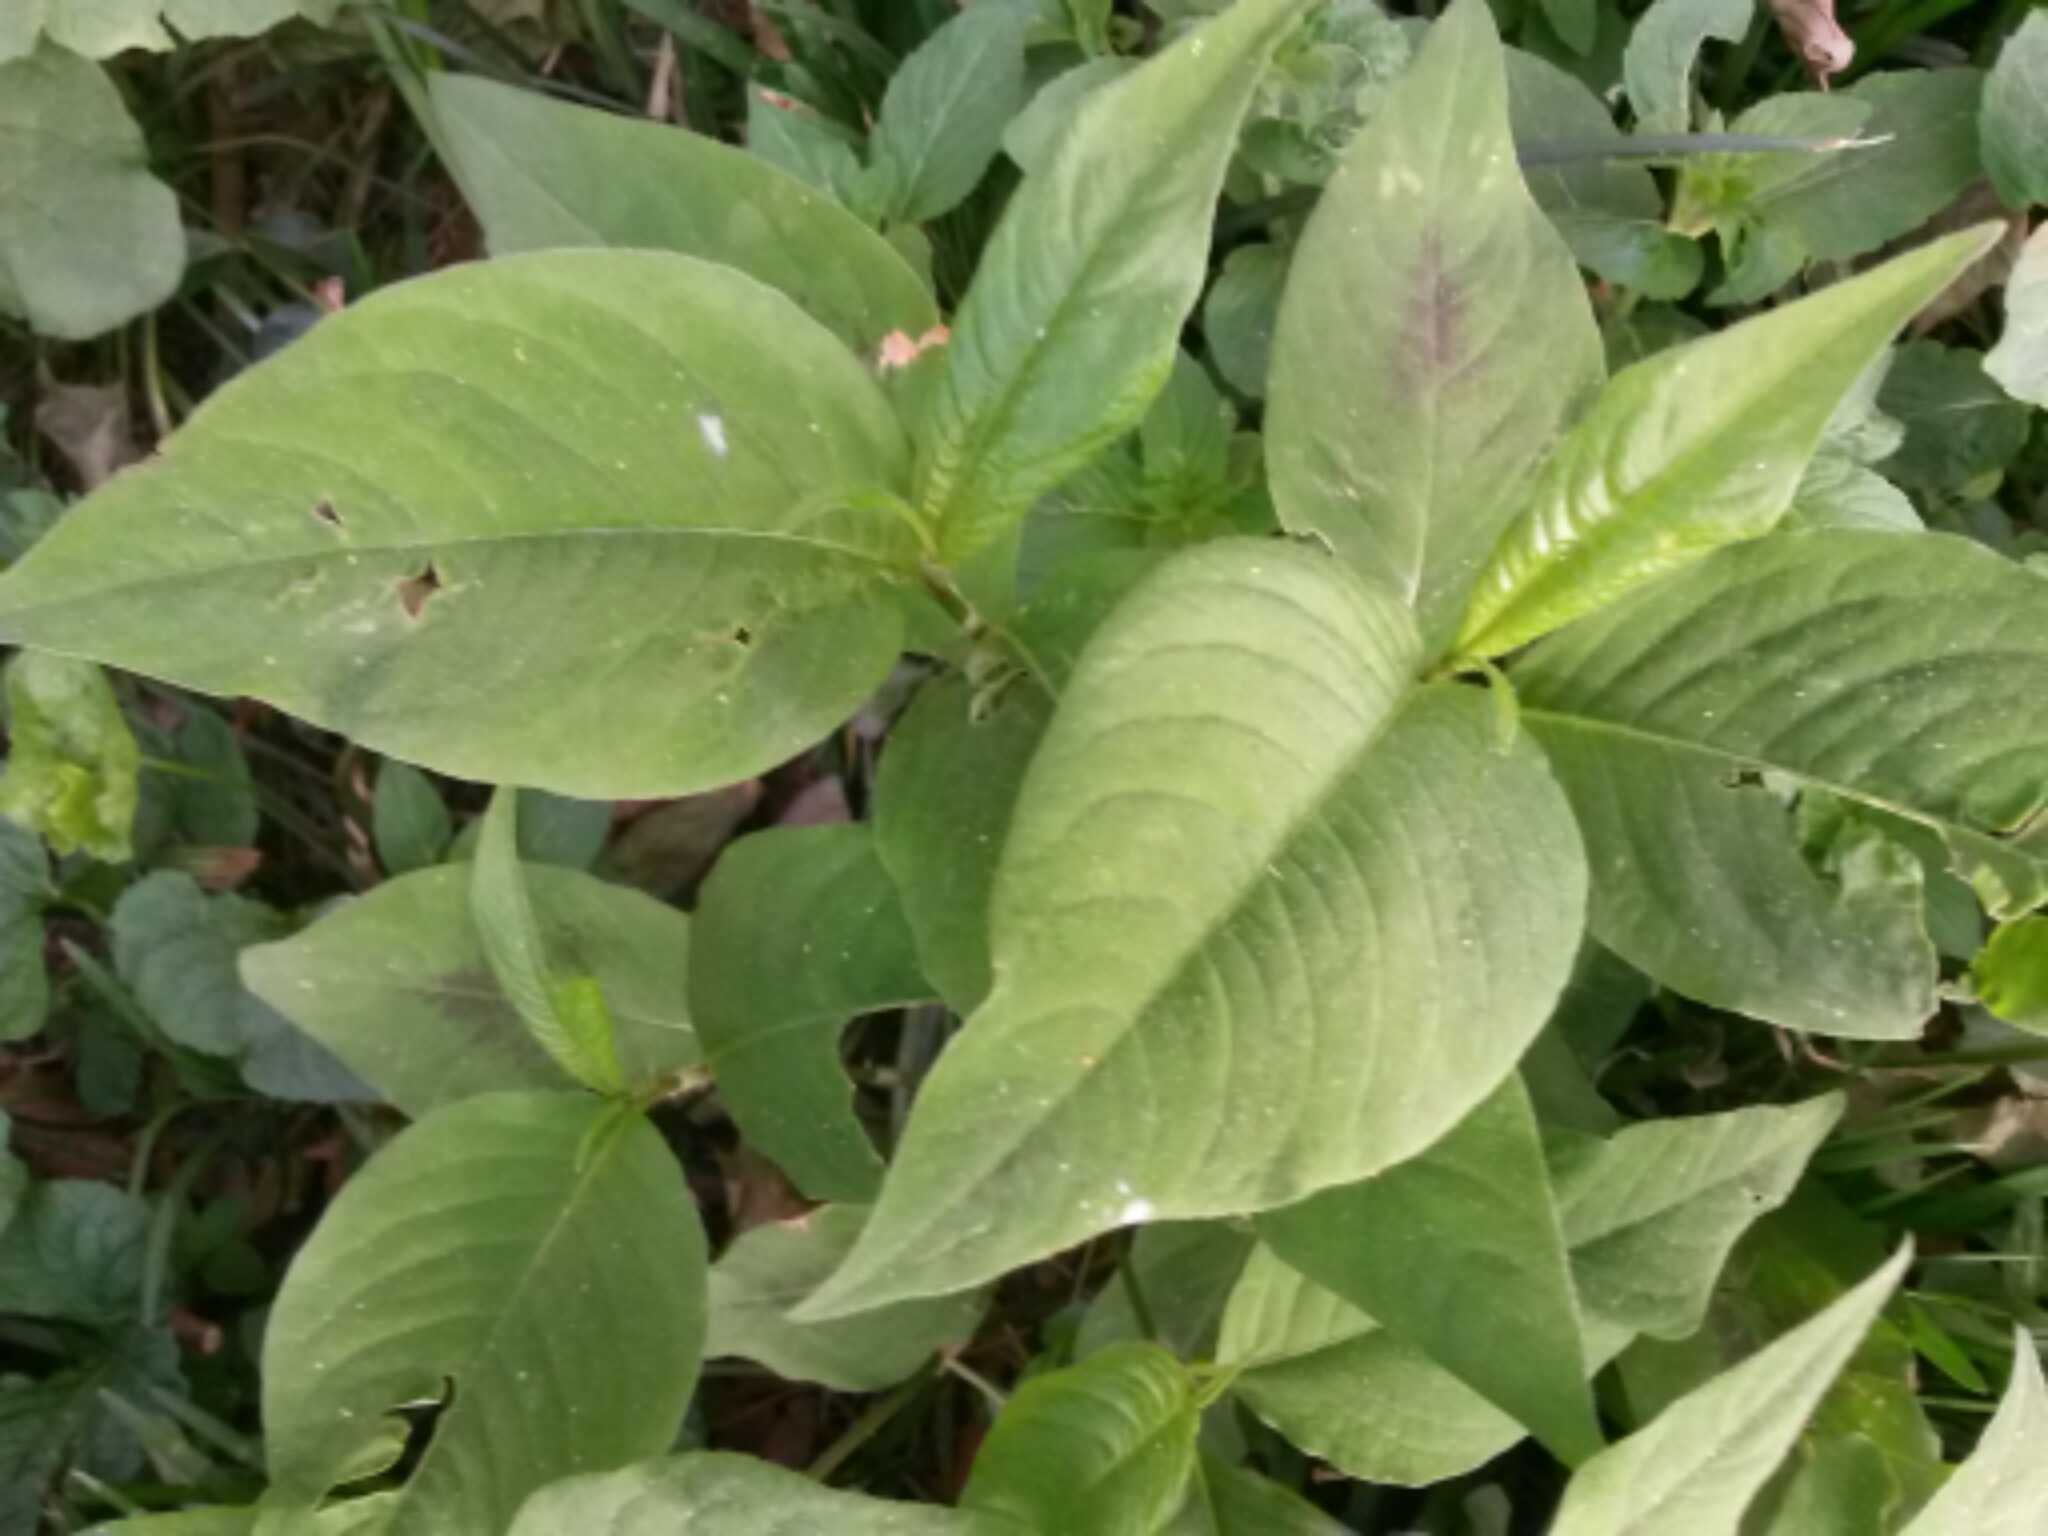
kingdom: Plantae
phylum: Tracheophyta
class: Magnoliopsida
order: Caryophyllales
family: Polygonaceae
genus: Persicaria
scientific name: Persicaria virginiana
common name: Jumpseed
